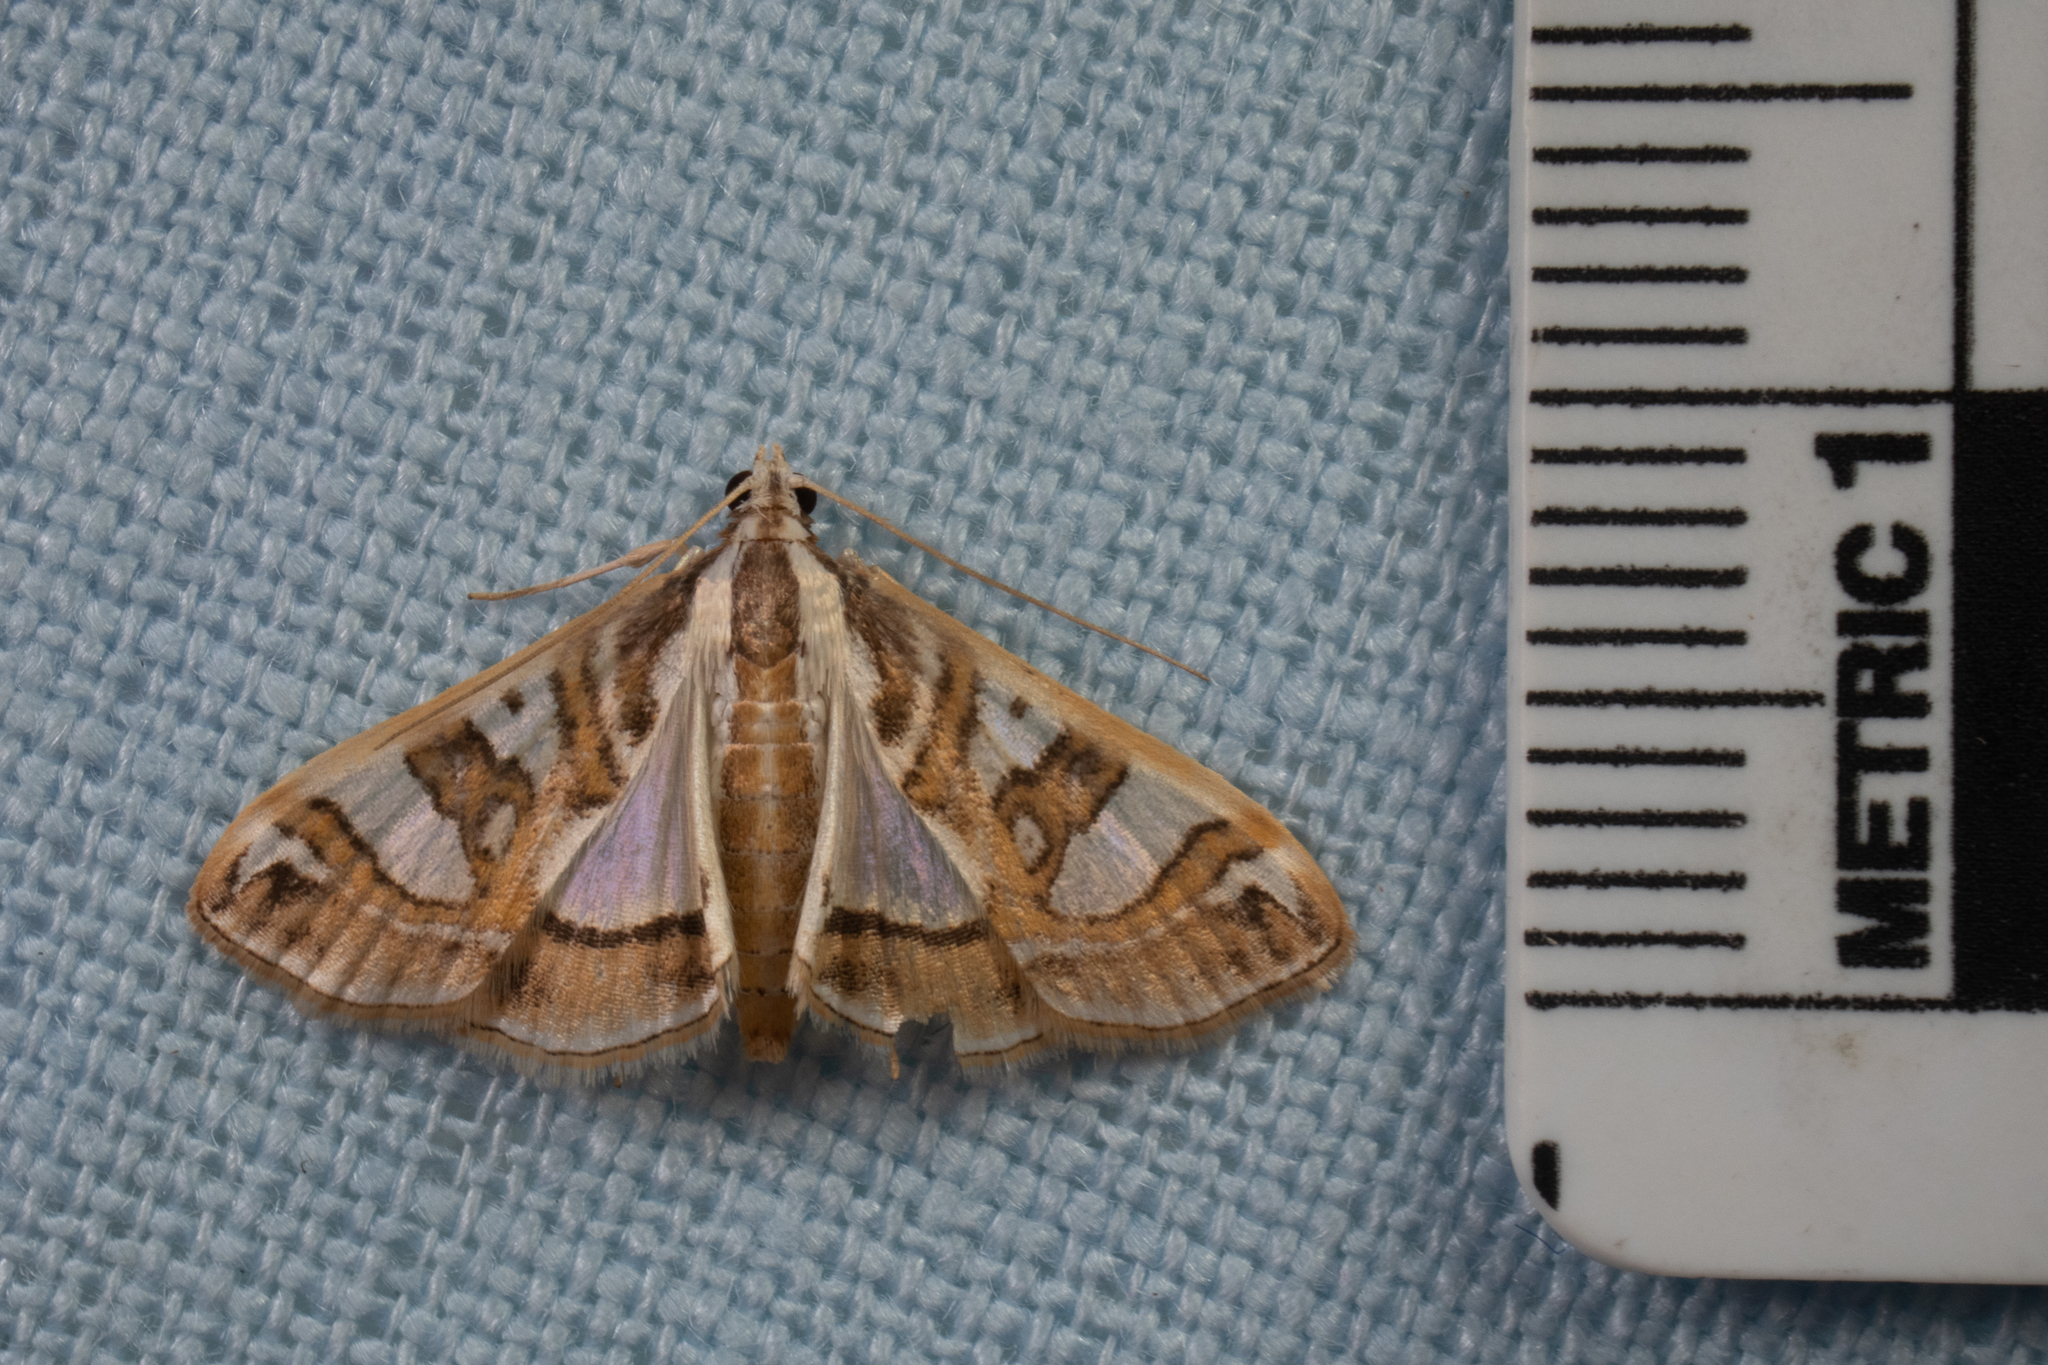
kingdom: Animalia
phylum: Arthropoda
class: Insecta
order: Lepidoptera
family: Crambidae
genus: Glyphodes
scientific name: Glyphodes pyloalis
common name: Lesser mulberry snout moth
